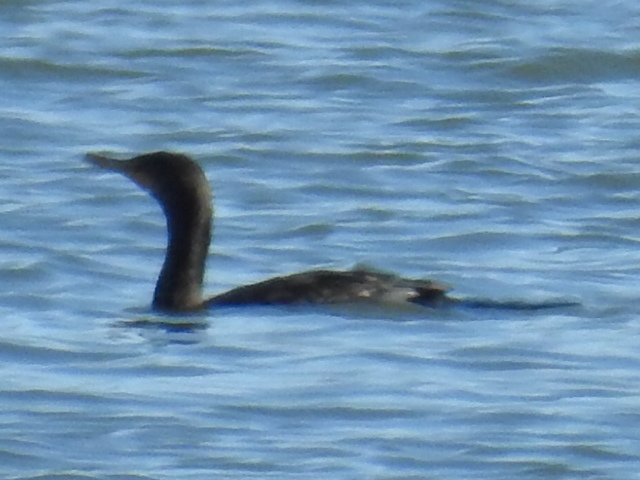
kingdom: Animalia
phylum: Chordata
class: Aves
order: Suliformes
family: Phalacrocoracidae
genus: Phalacrocorax
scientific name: Phalacrocorax auritus
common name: Double-crested cormorant
